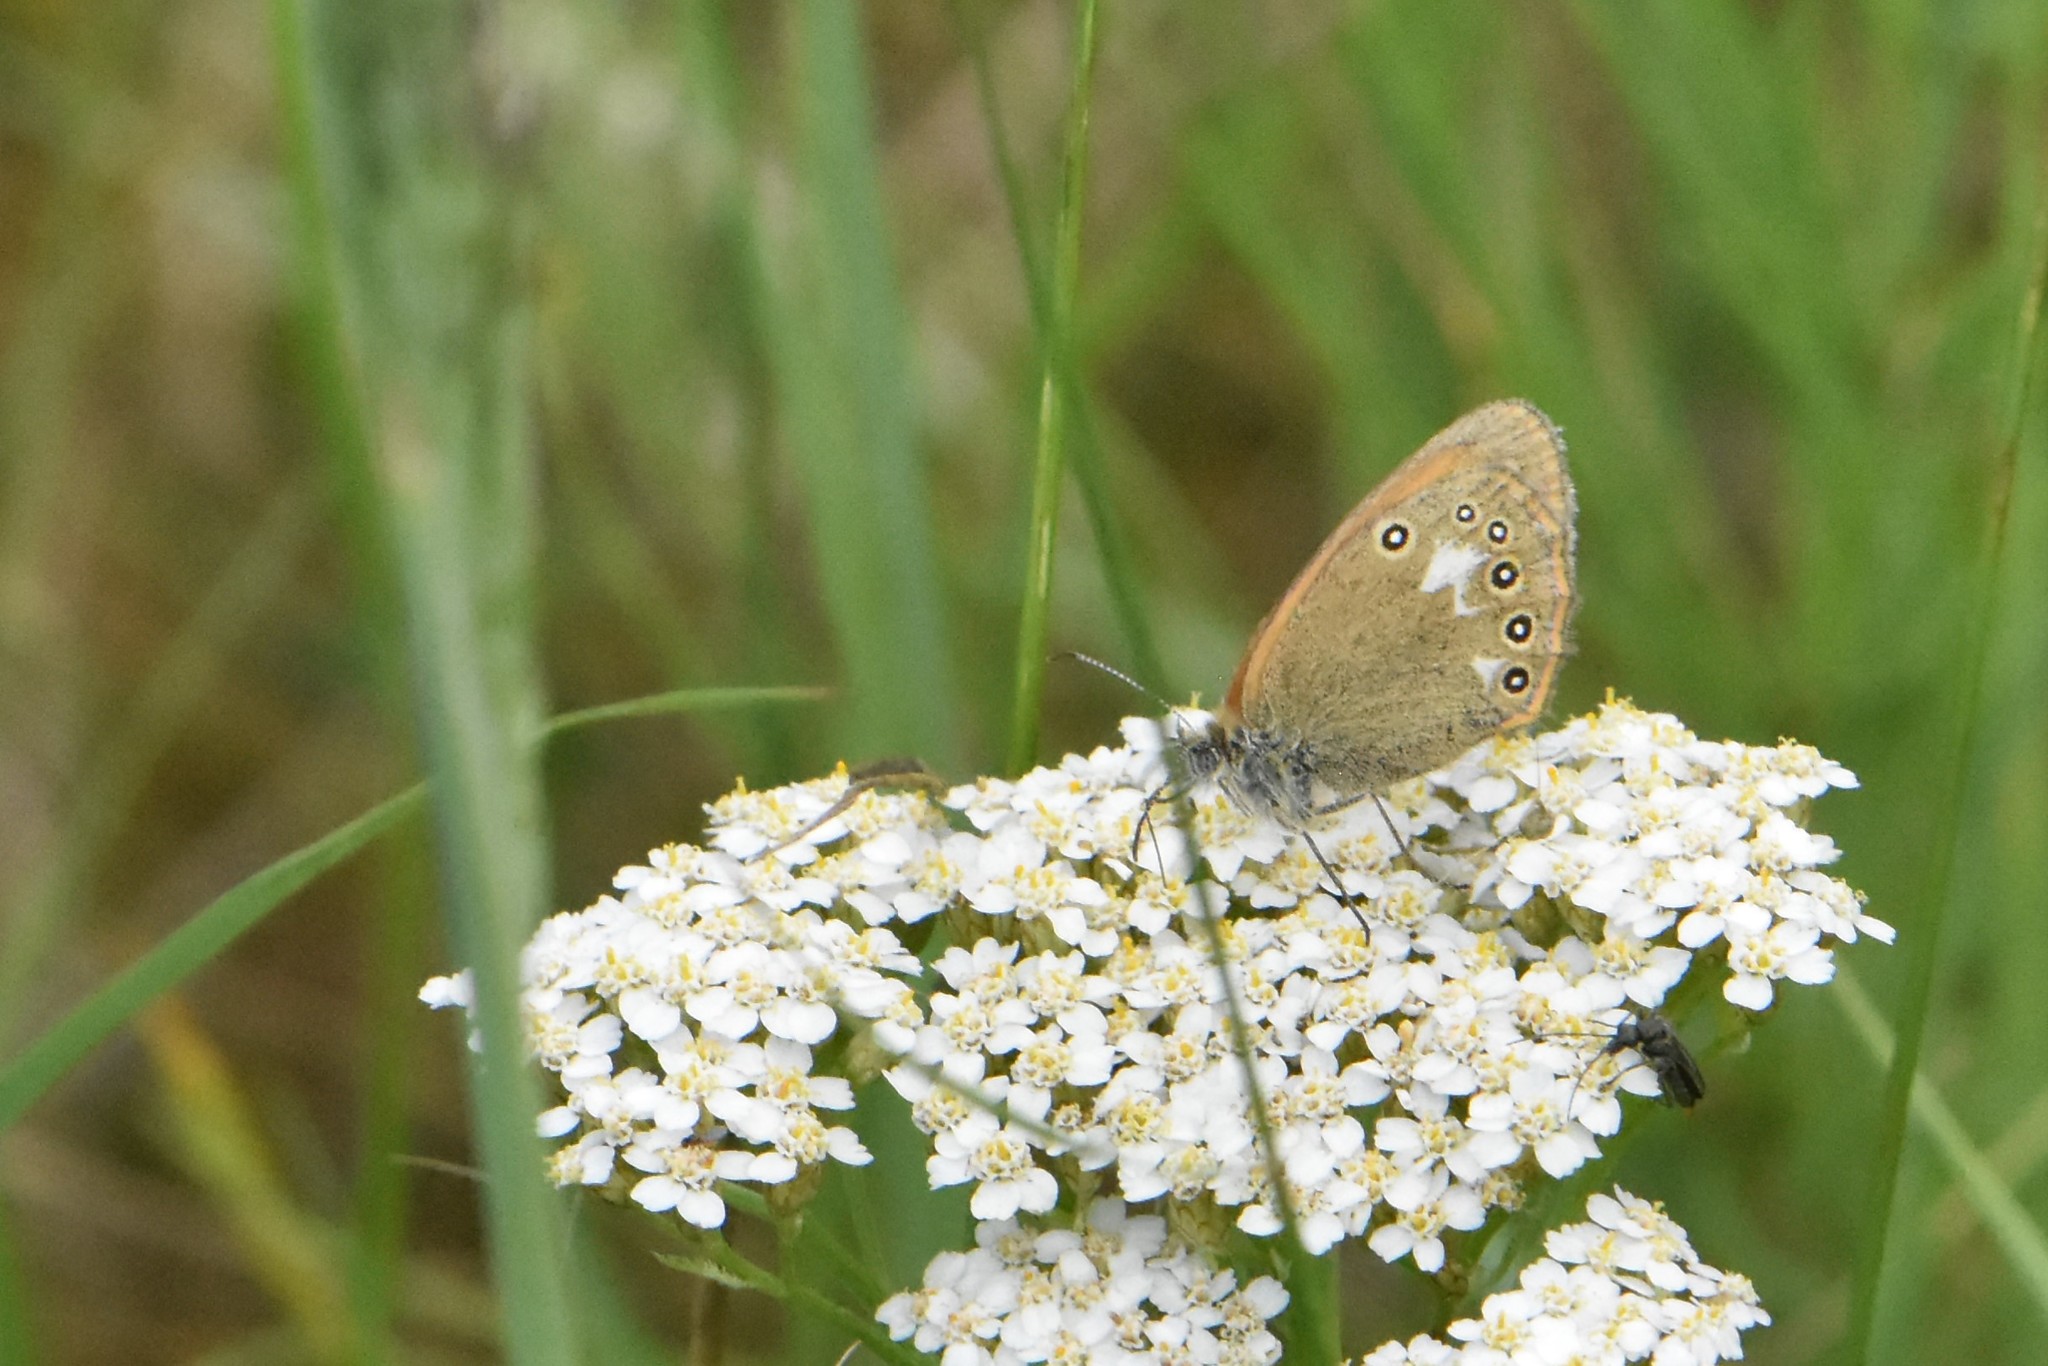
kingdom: Animalia
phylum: Arthropoda
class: Insecta
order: Lepidoptera
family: Nymphalidae
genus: Coenonympha
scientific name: Coenonympha iphis
